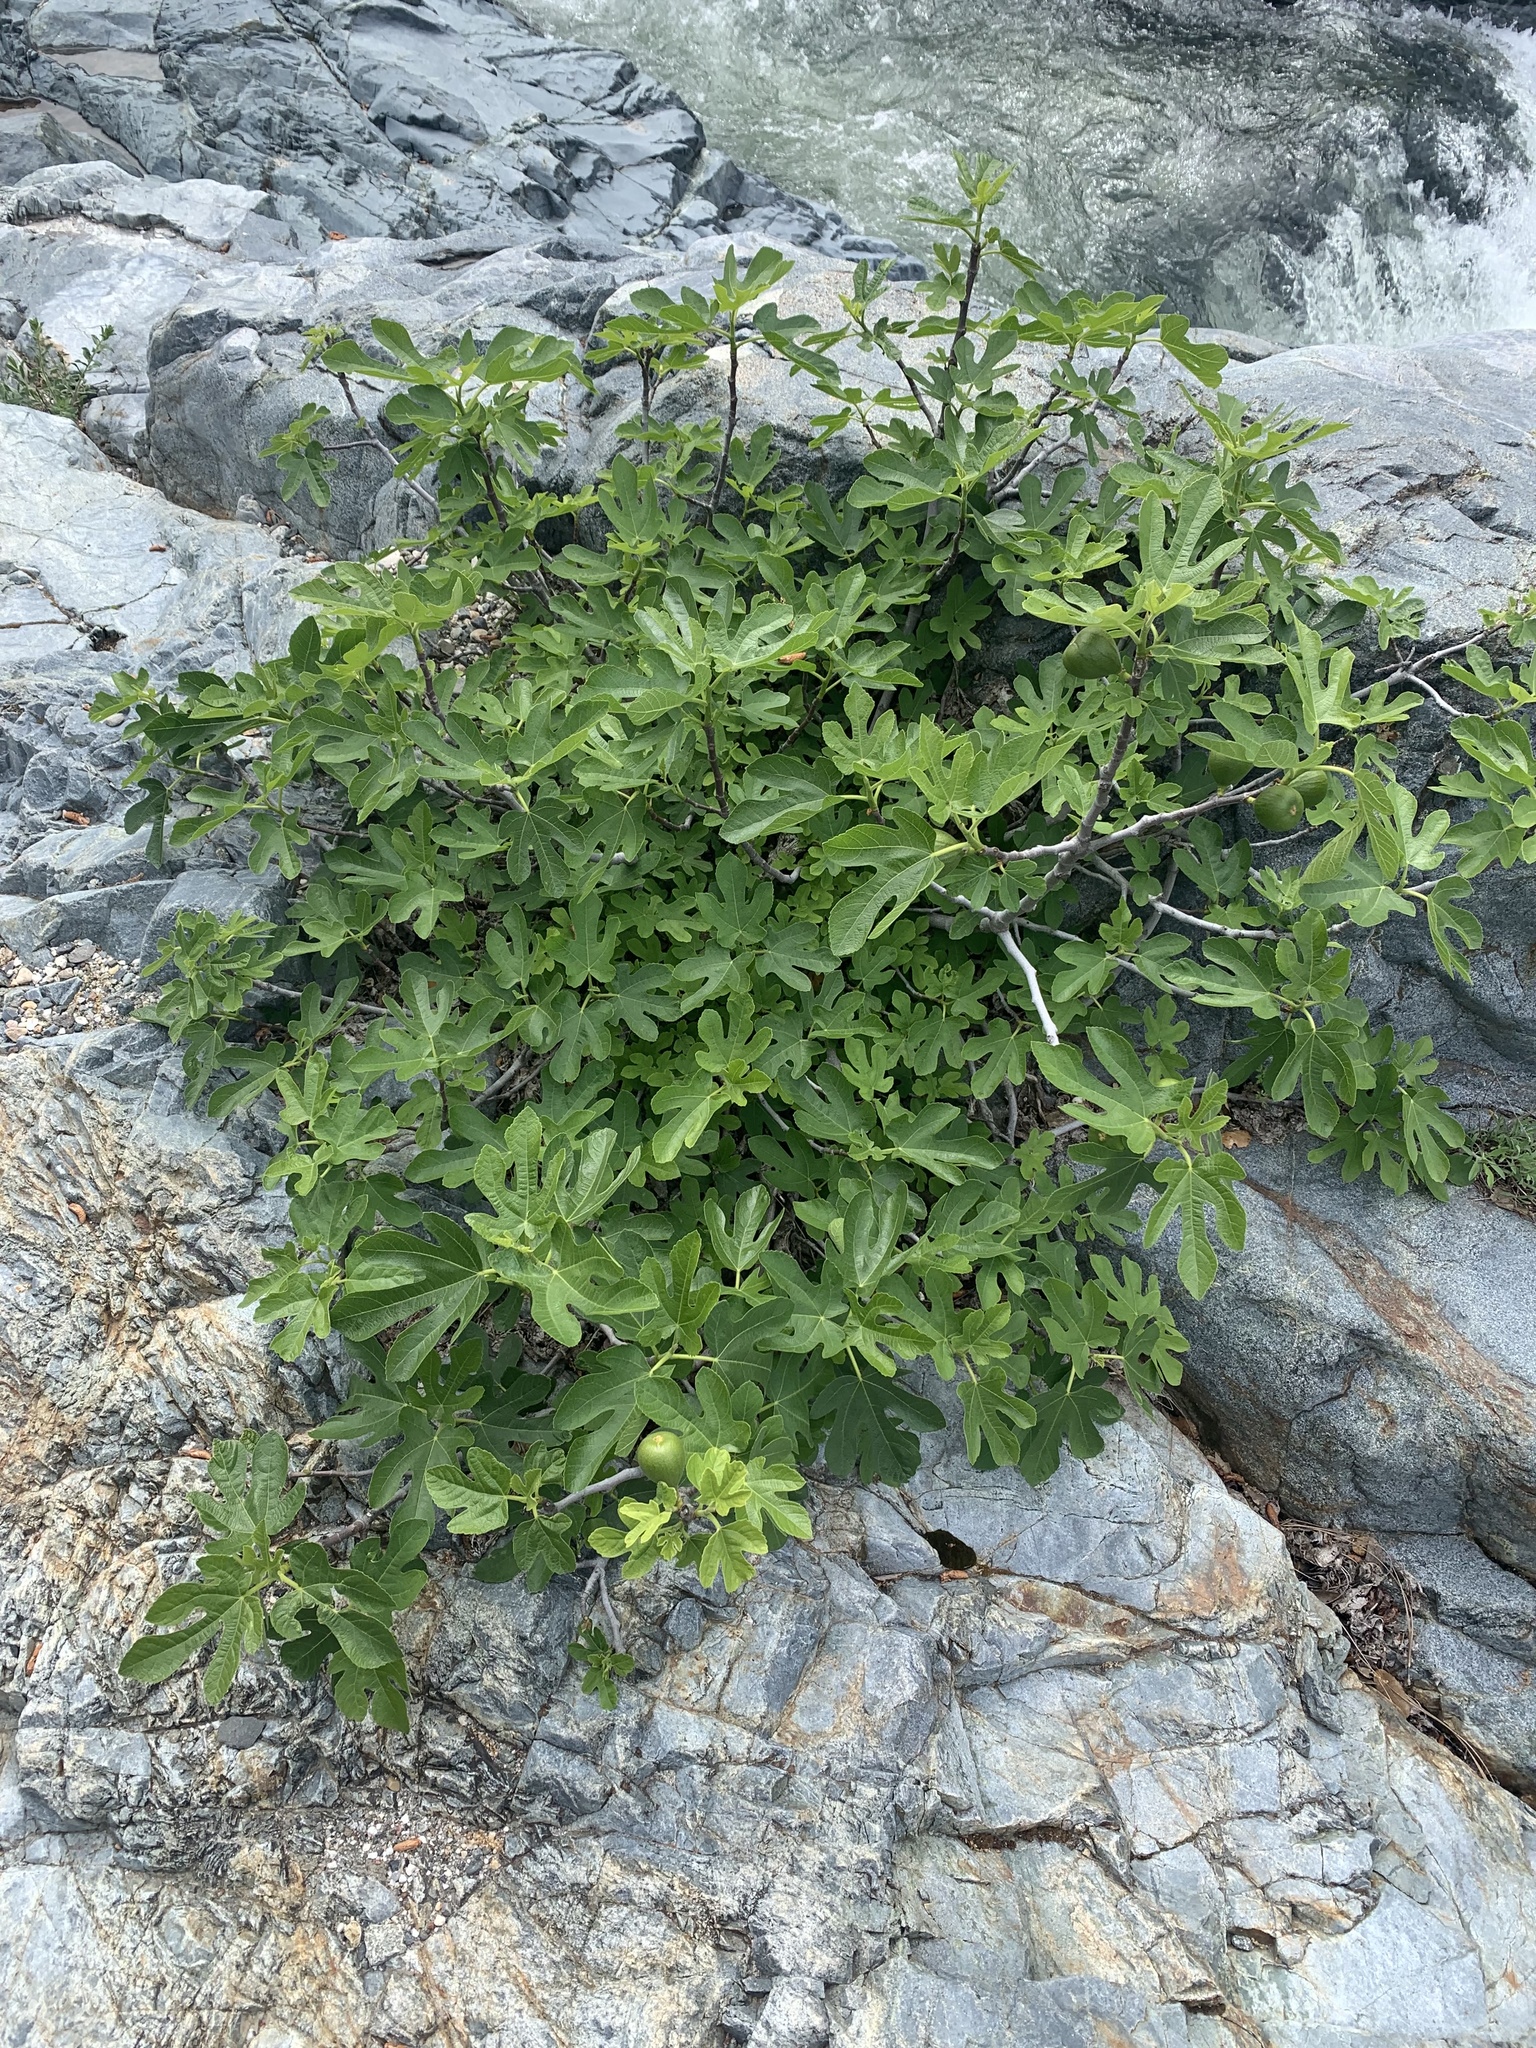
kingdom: Plantae
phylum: Tracheophyta
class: Magnoliopsida
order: Rosales
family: Moraceae
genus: Ficus
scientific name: Ficus carica
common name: Fig
